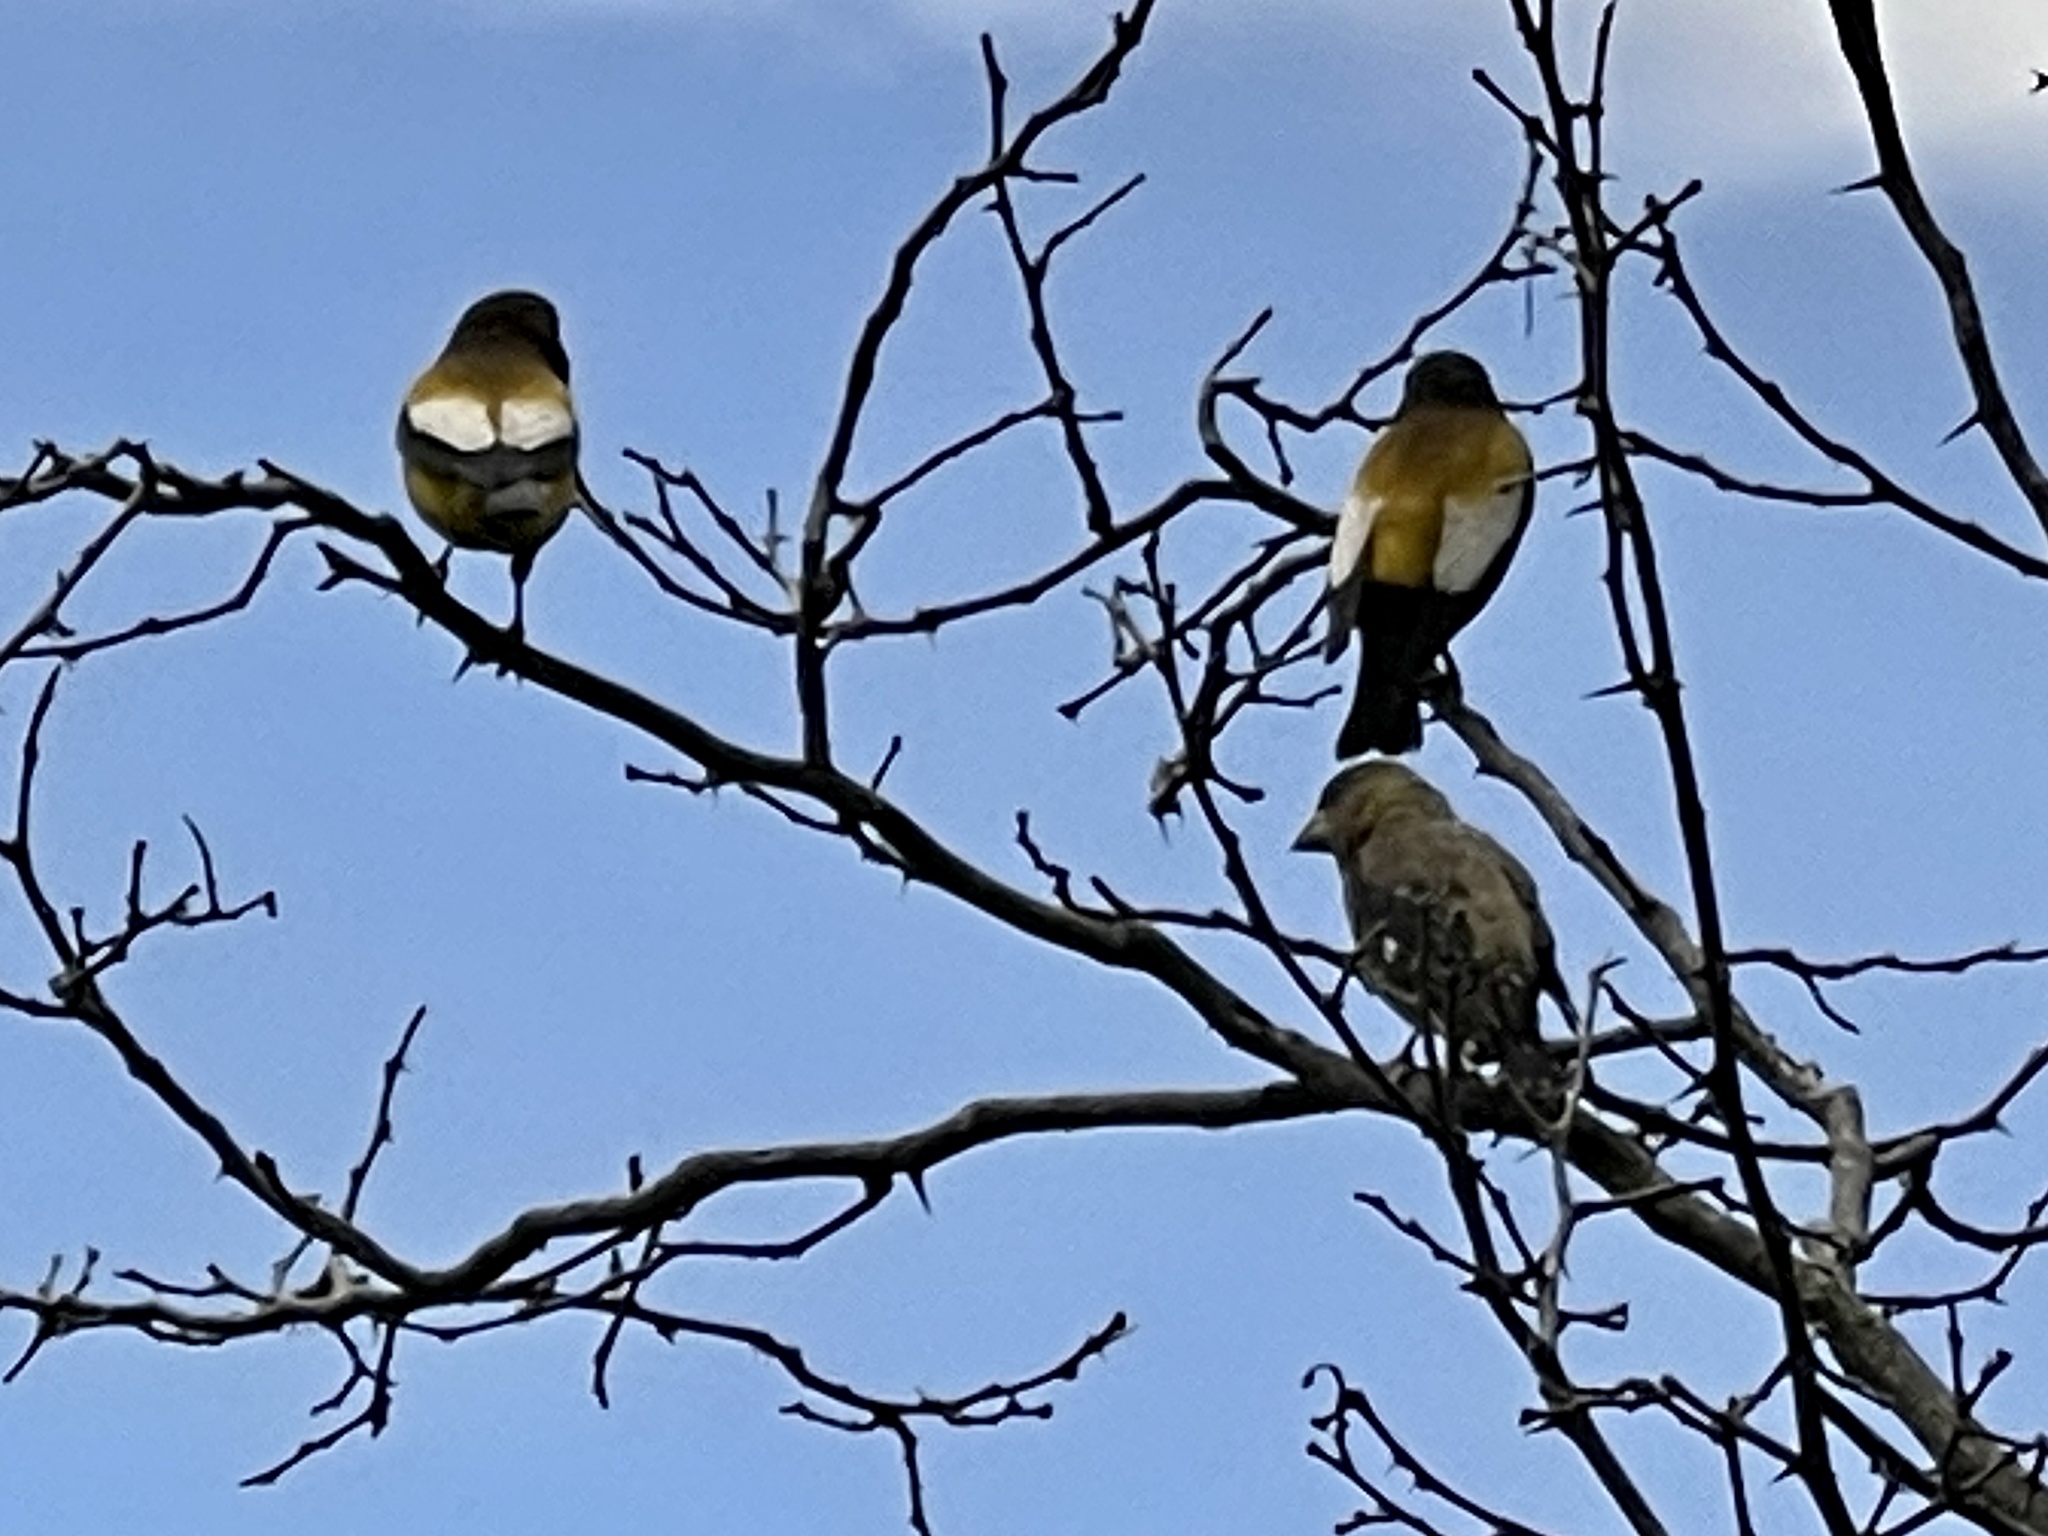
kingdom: Animalia
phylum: Chordata
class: Aves
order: Passeriformes
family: Fringillidae
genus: Hesperiphona
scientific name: Hesperiphona vespertina
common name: Evening grosbeak
